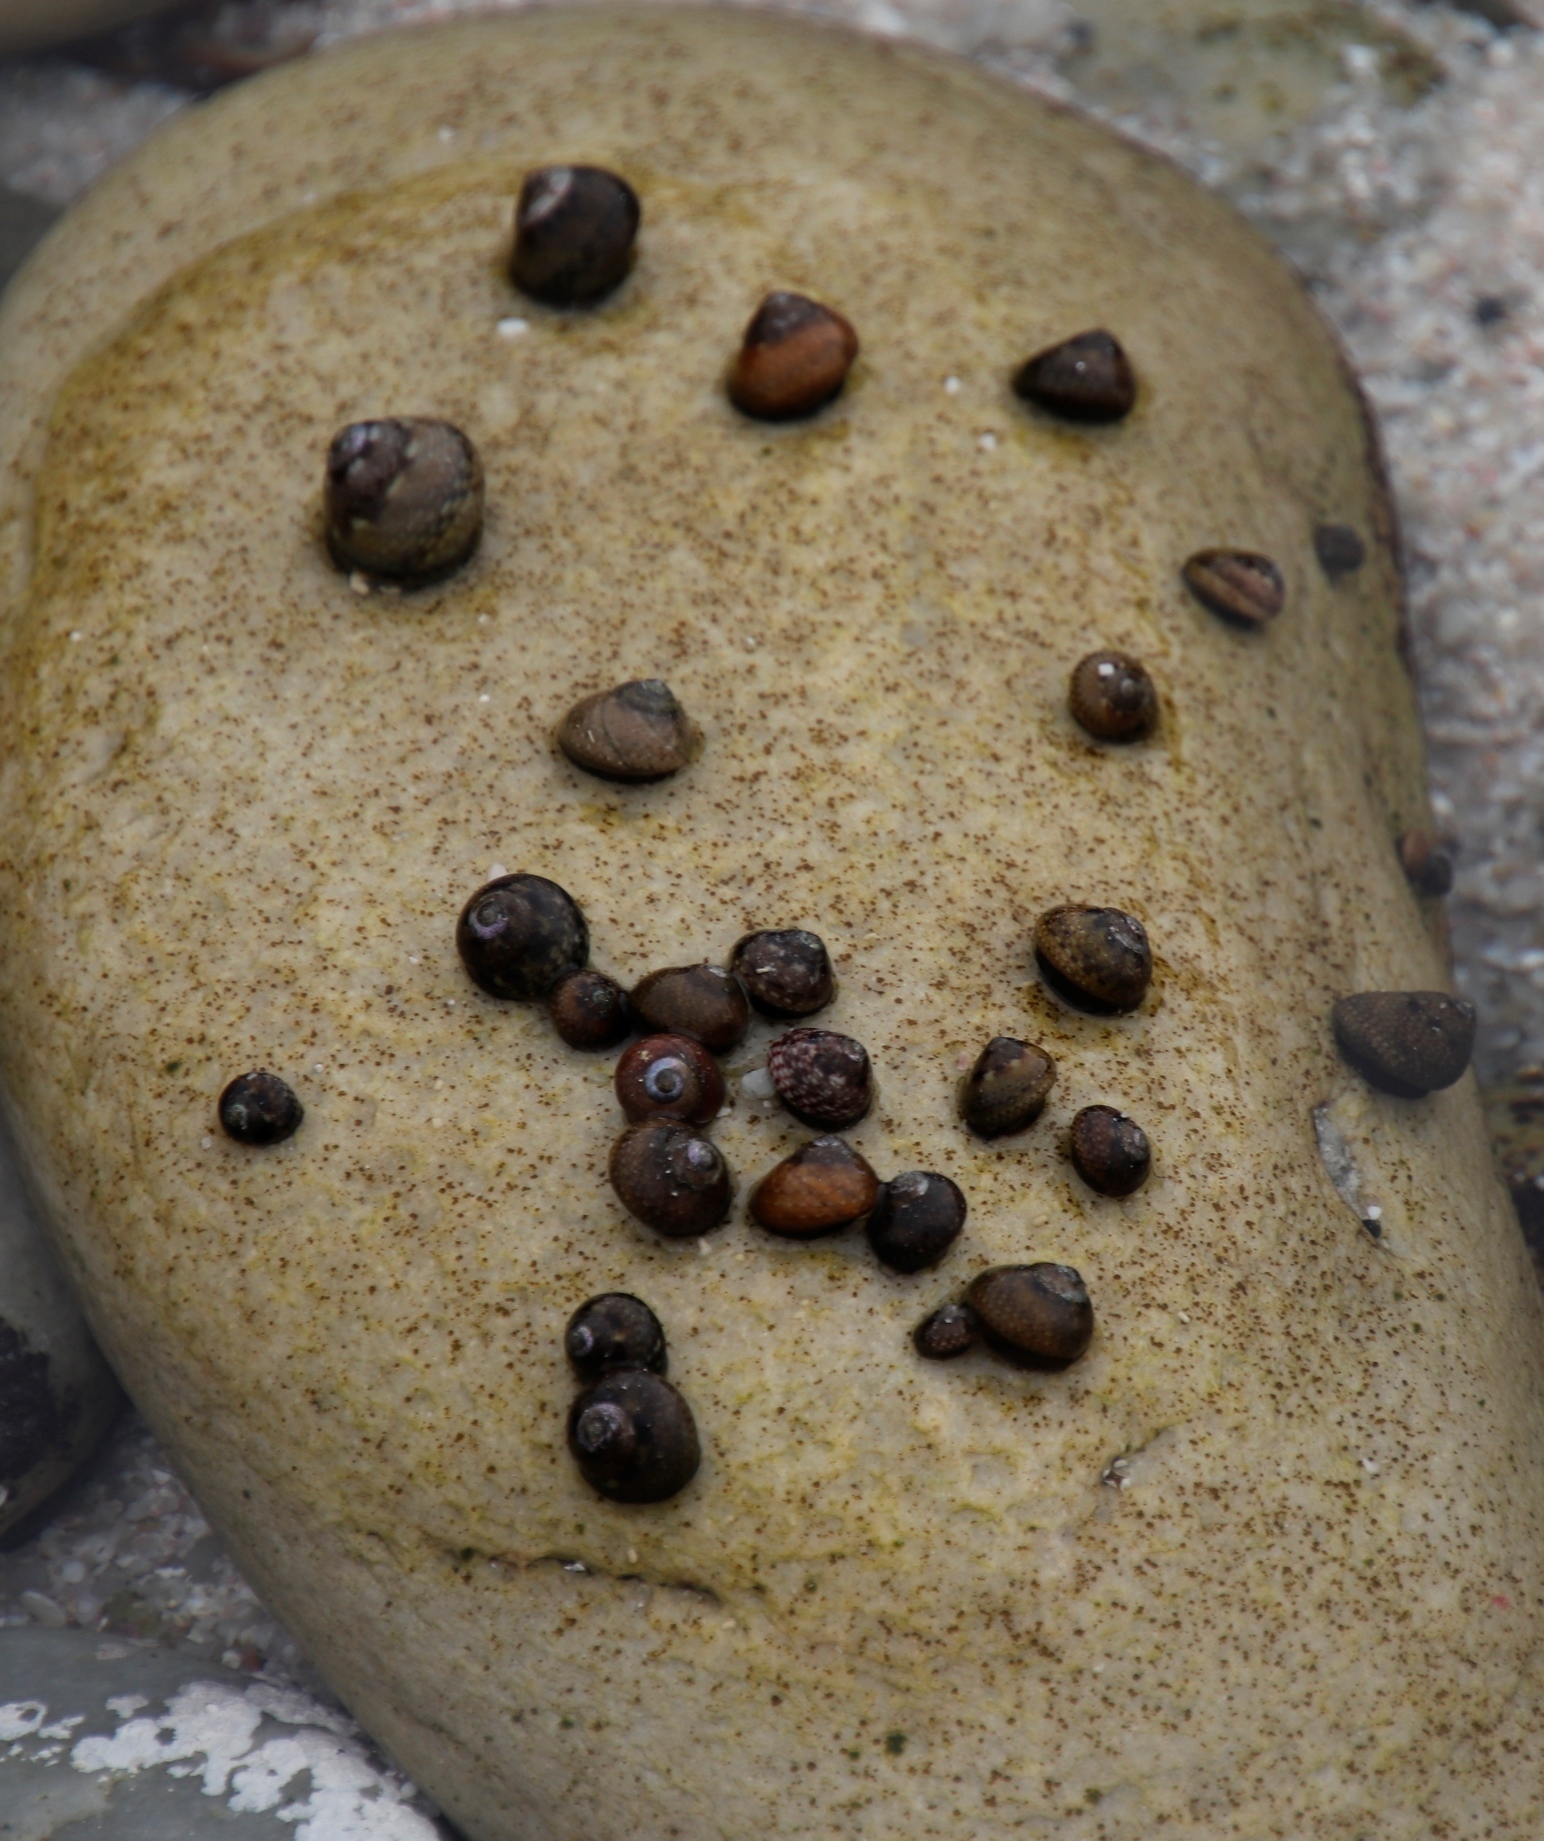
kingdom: Animalia
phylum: Mollusca
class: Gastropoda
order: Trochida
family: Trochidae
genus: Oxystele
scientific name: Oxystele impervia
